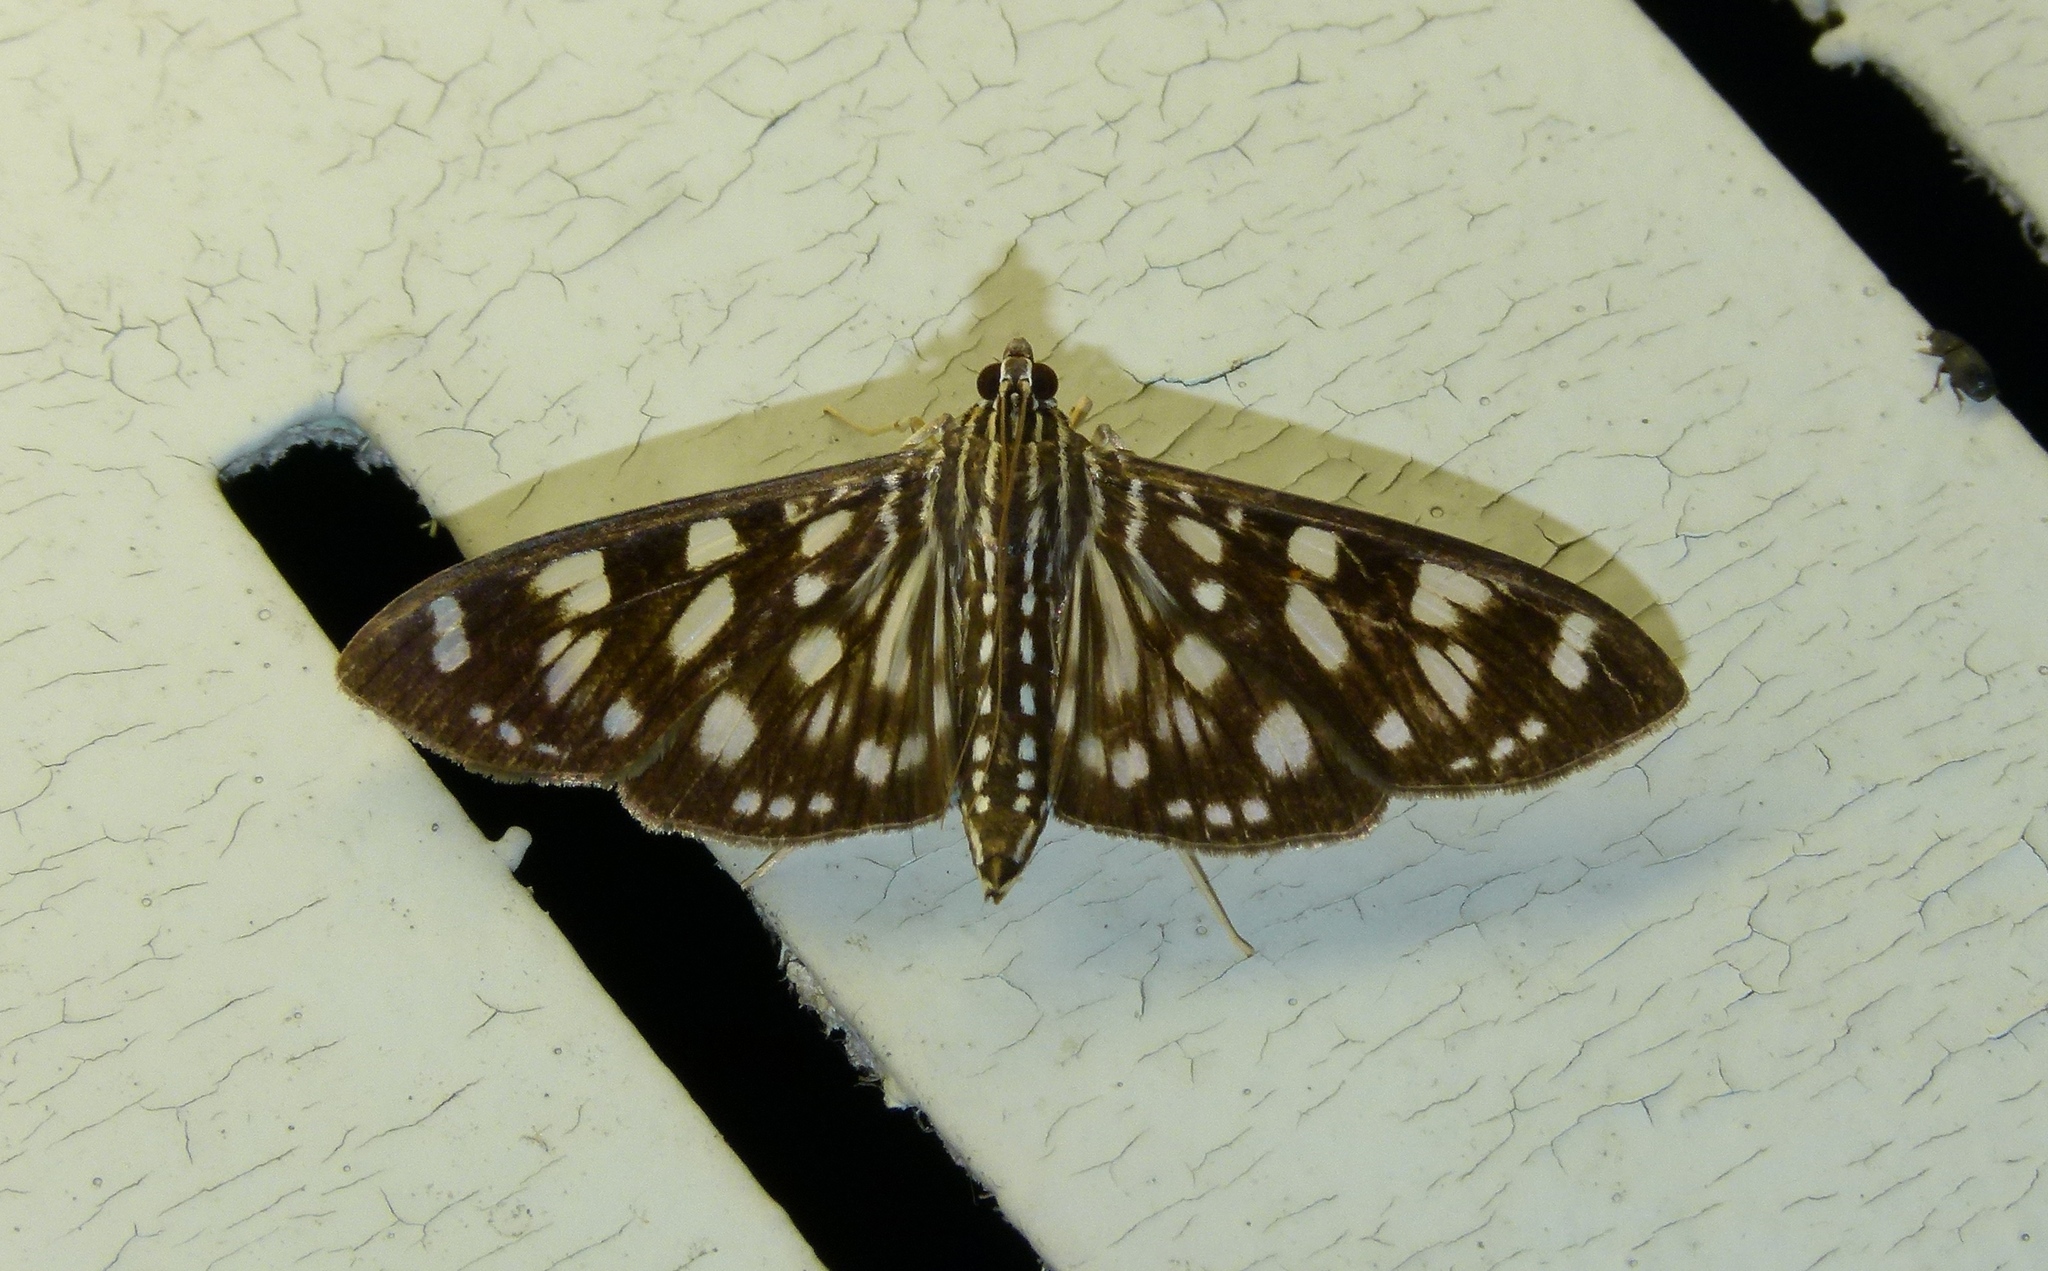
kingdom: Animalia
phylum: Arthropoda
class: Insecta
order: Lepidoptera
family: Crambidae
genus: Pygospila
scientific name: Pygospila tyres
